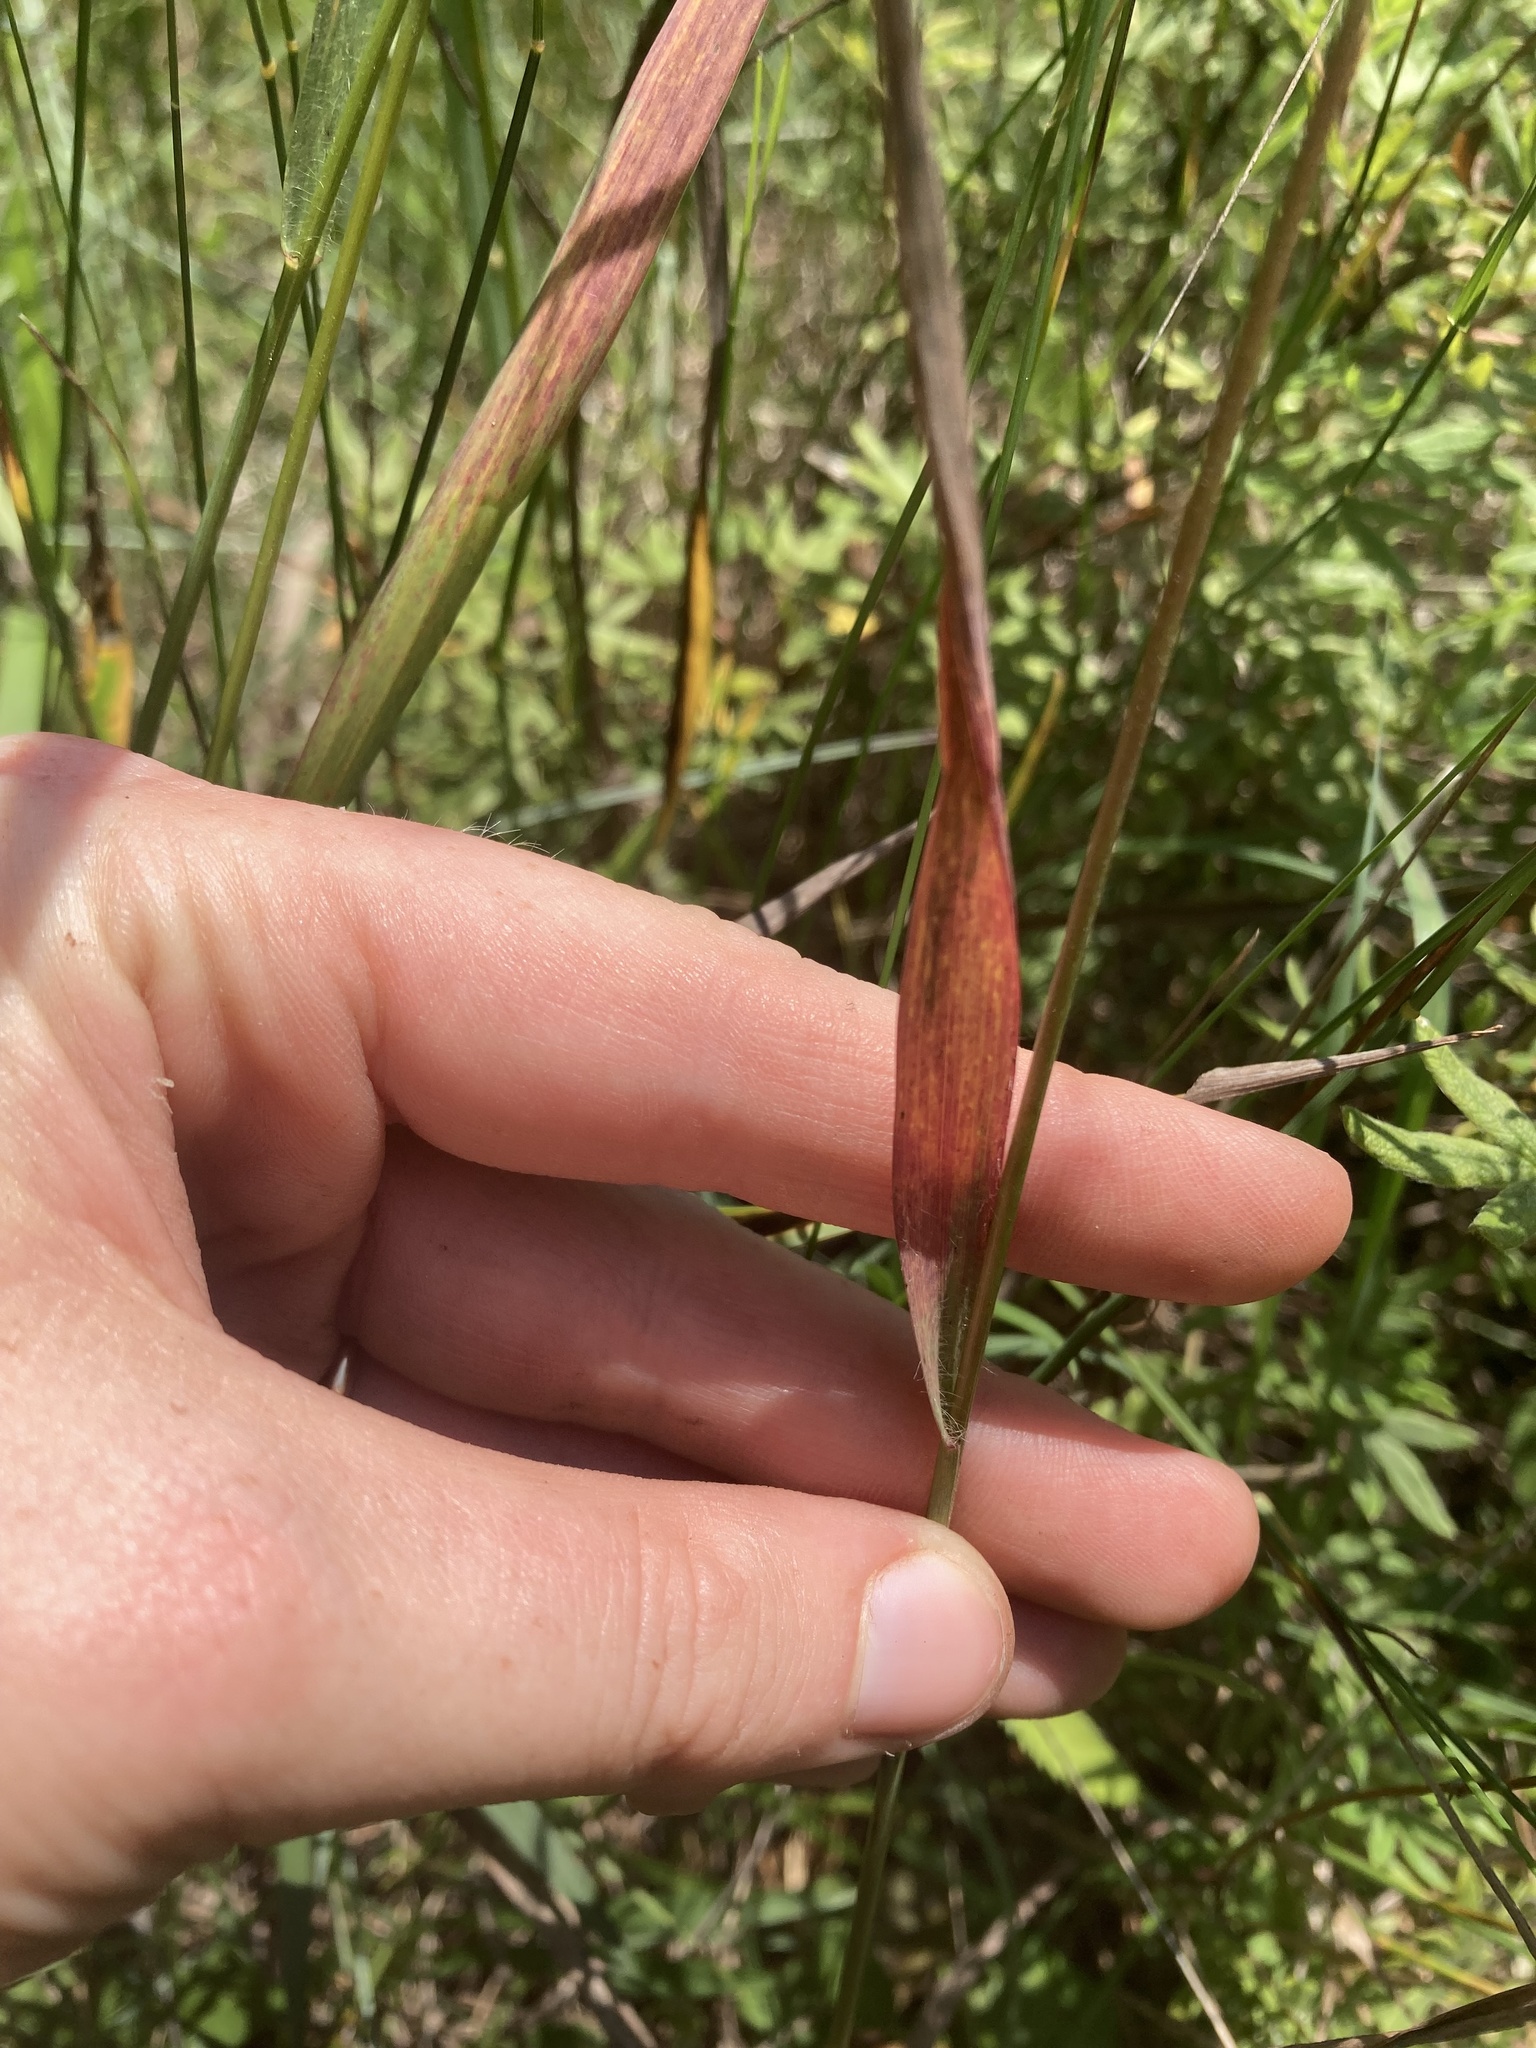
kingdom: Plantae
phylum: Tracheophyta
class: Liliopsida
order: Poales
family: Poaceae
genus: Bromus
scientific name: Bromus kalmii
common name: Kalm brome
